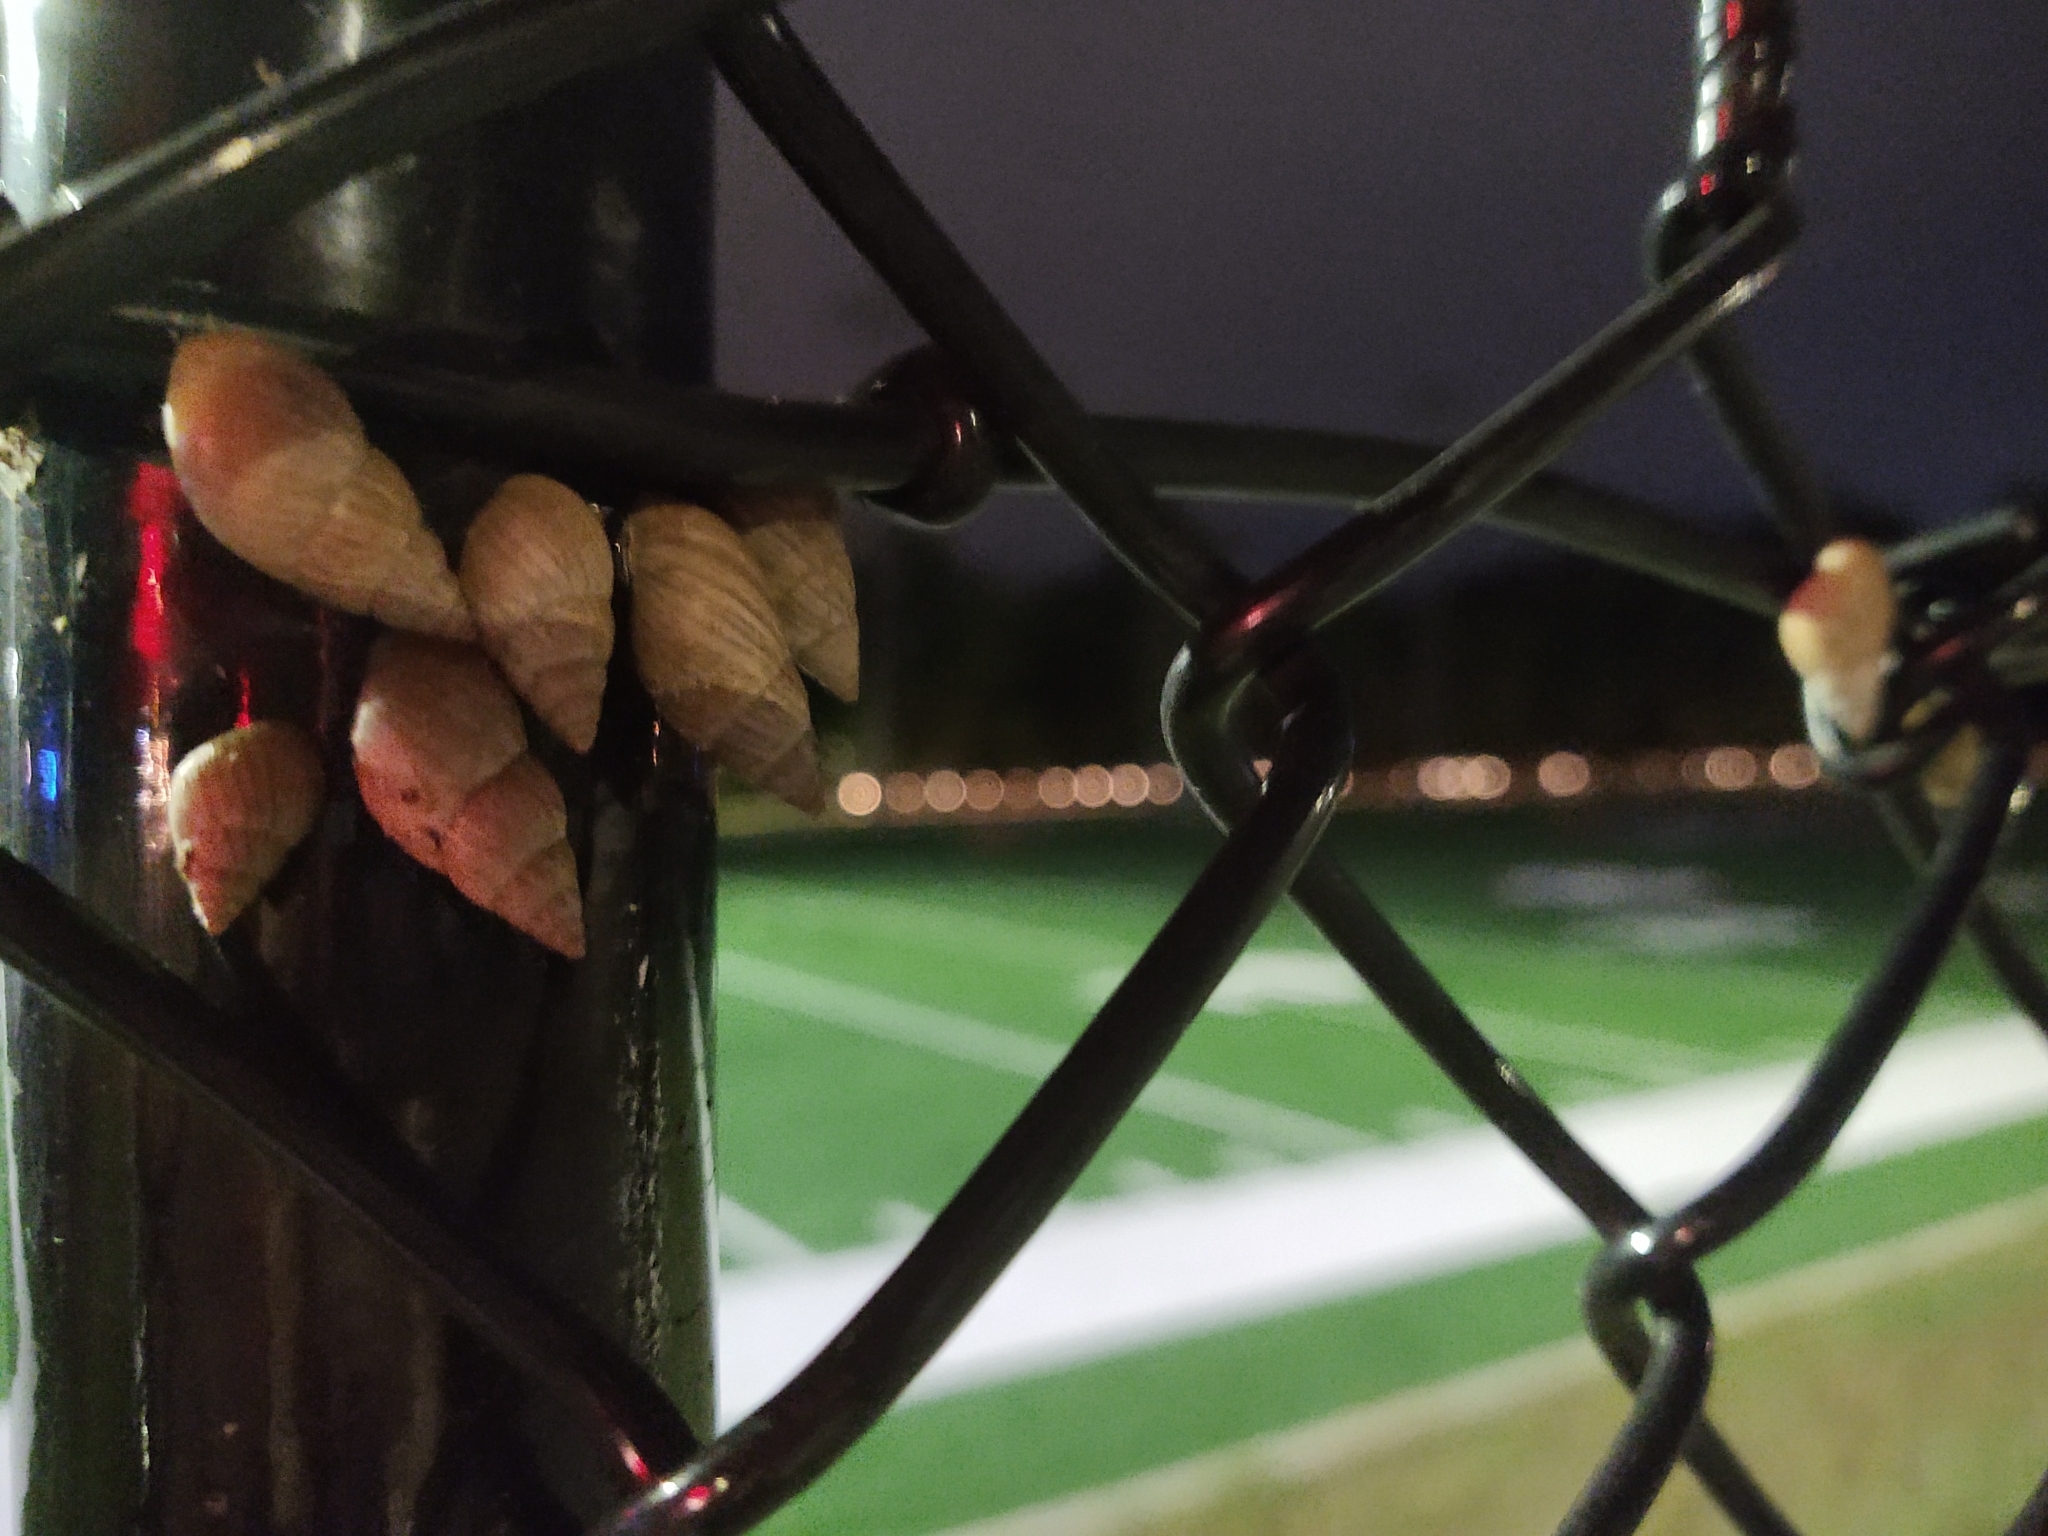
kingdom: Animalia
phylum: Mollusca
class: Gastropoda
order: Stylommatophora
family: Spiraxidae
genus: Euglandina
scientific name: Euglandina rosea
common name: Rosy wolfsnail
